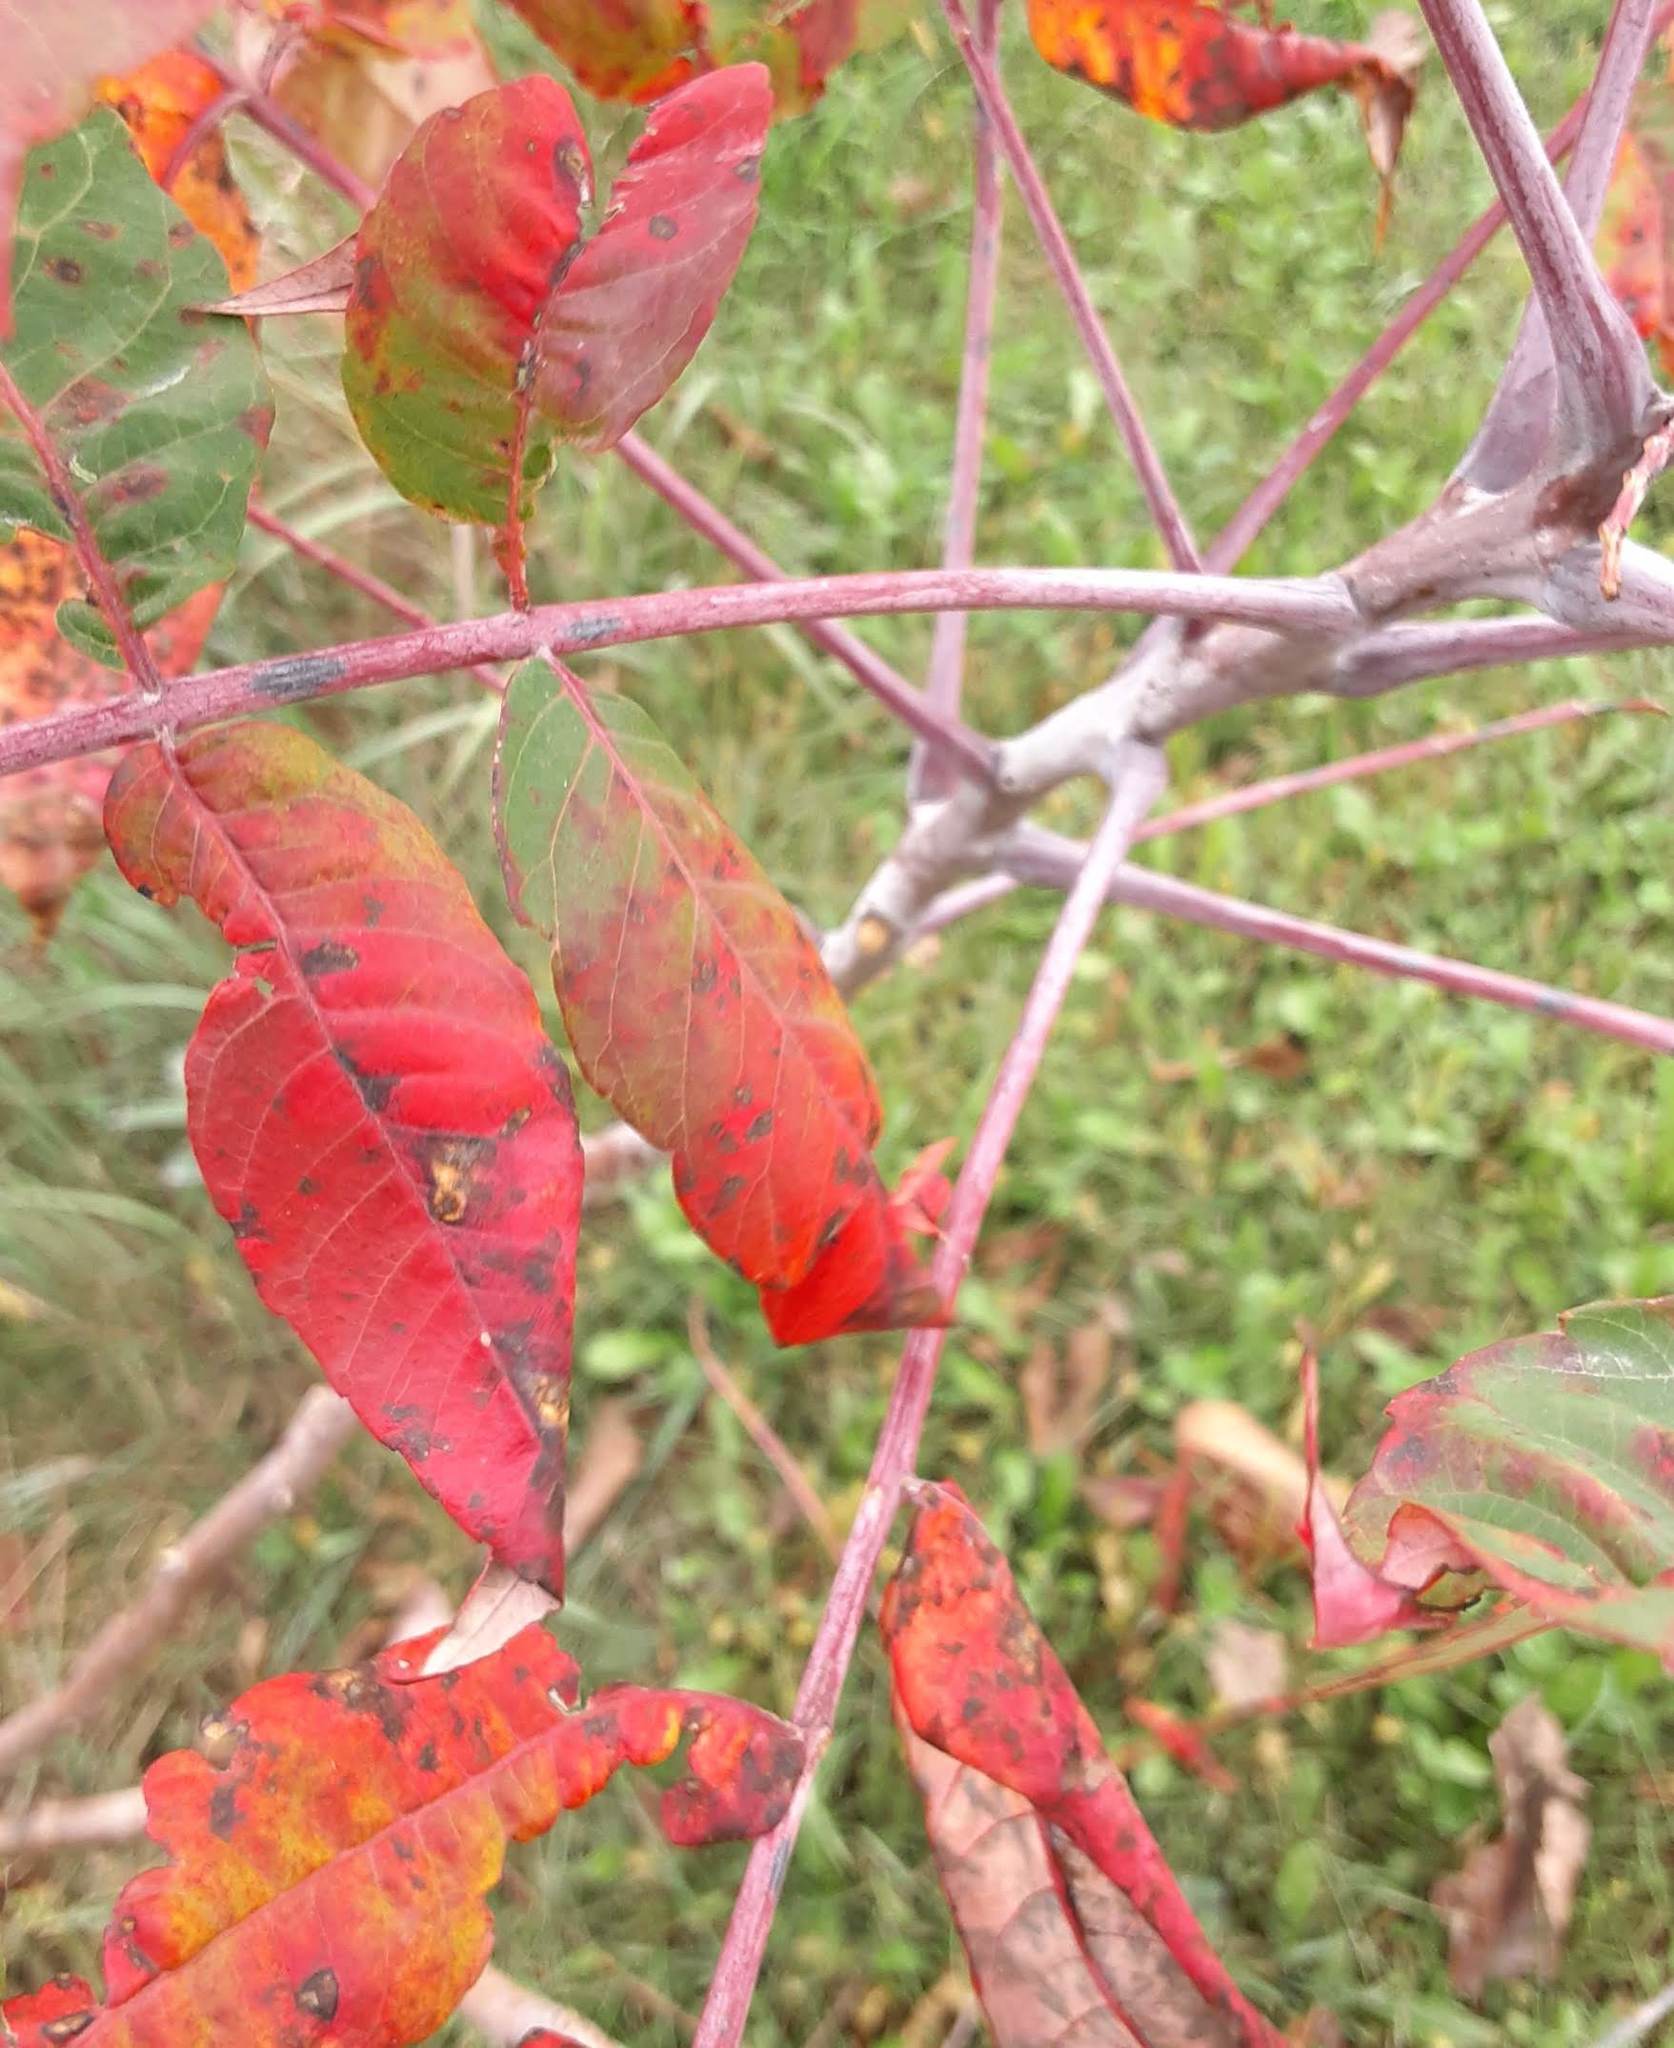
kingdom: Plantae
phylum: Tracheophyta
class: Magnoliopsida
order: Sapindales
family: Anacardiaceae
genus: Rhus
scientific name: Rhus glabra
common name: Scarlet sumac
